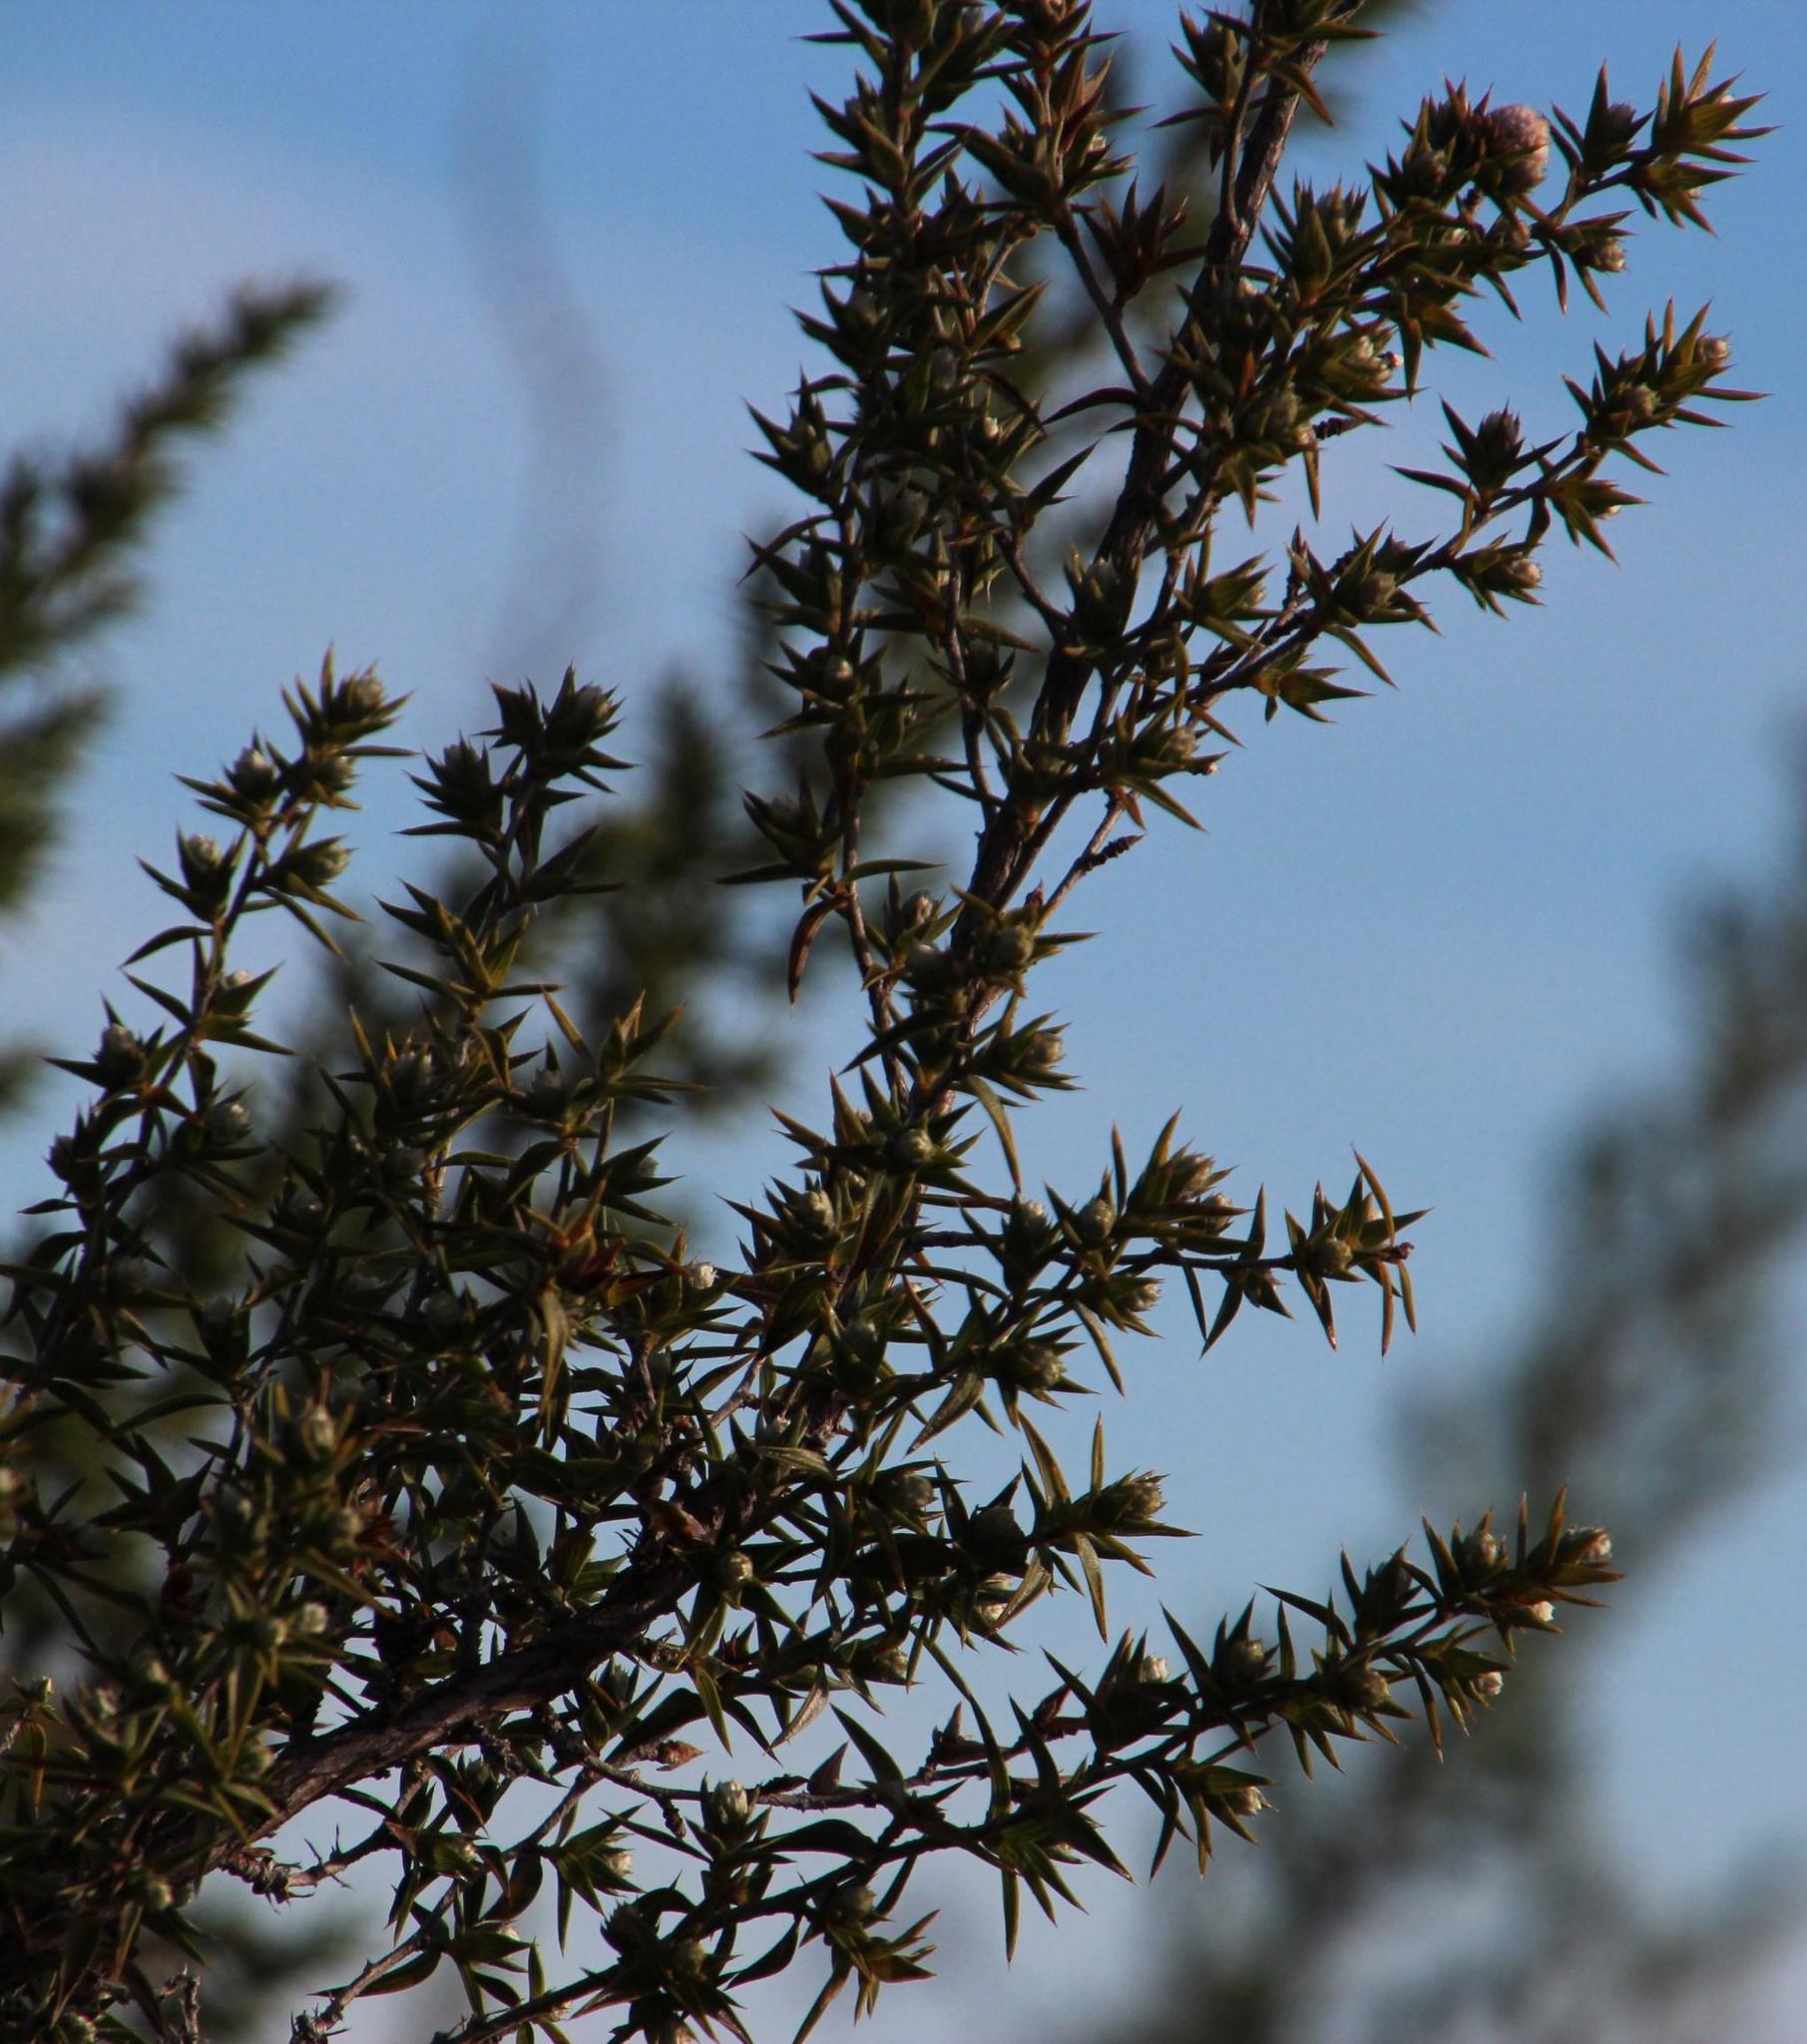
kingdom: Plantae
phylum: Tracheophyta
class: Magnoliopsida
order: Rosales
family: Rosaceae
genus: Cliffortia
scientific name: Cliffortia ruscifolia
